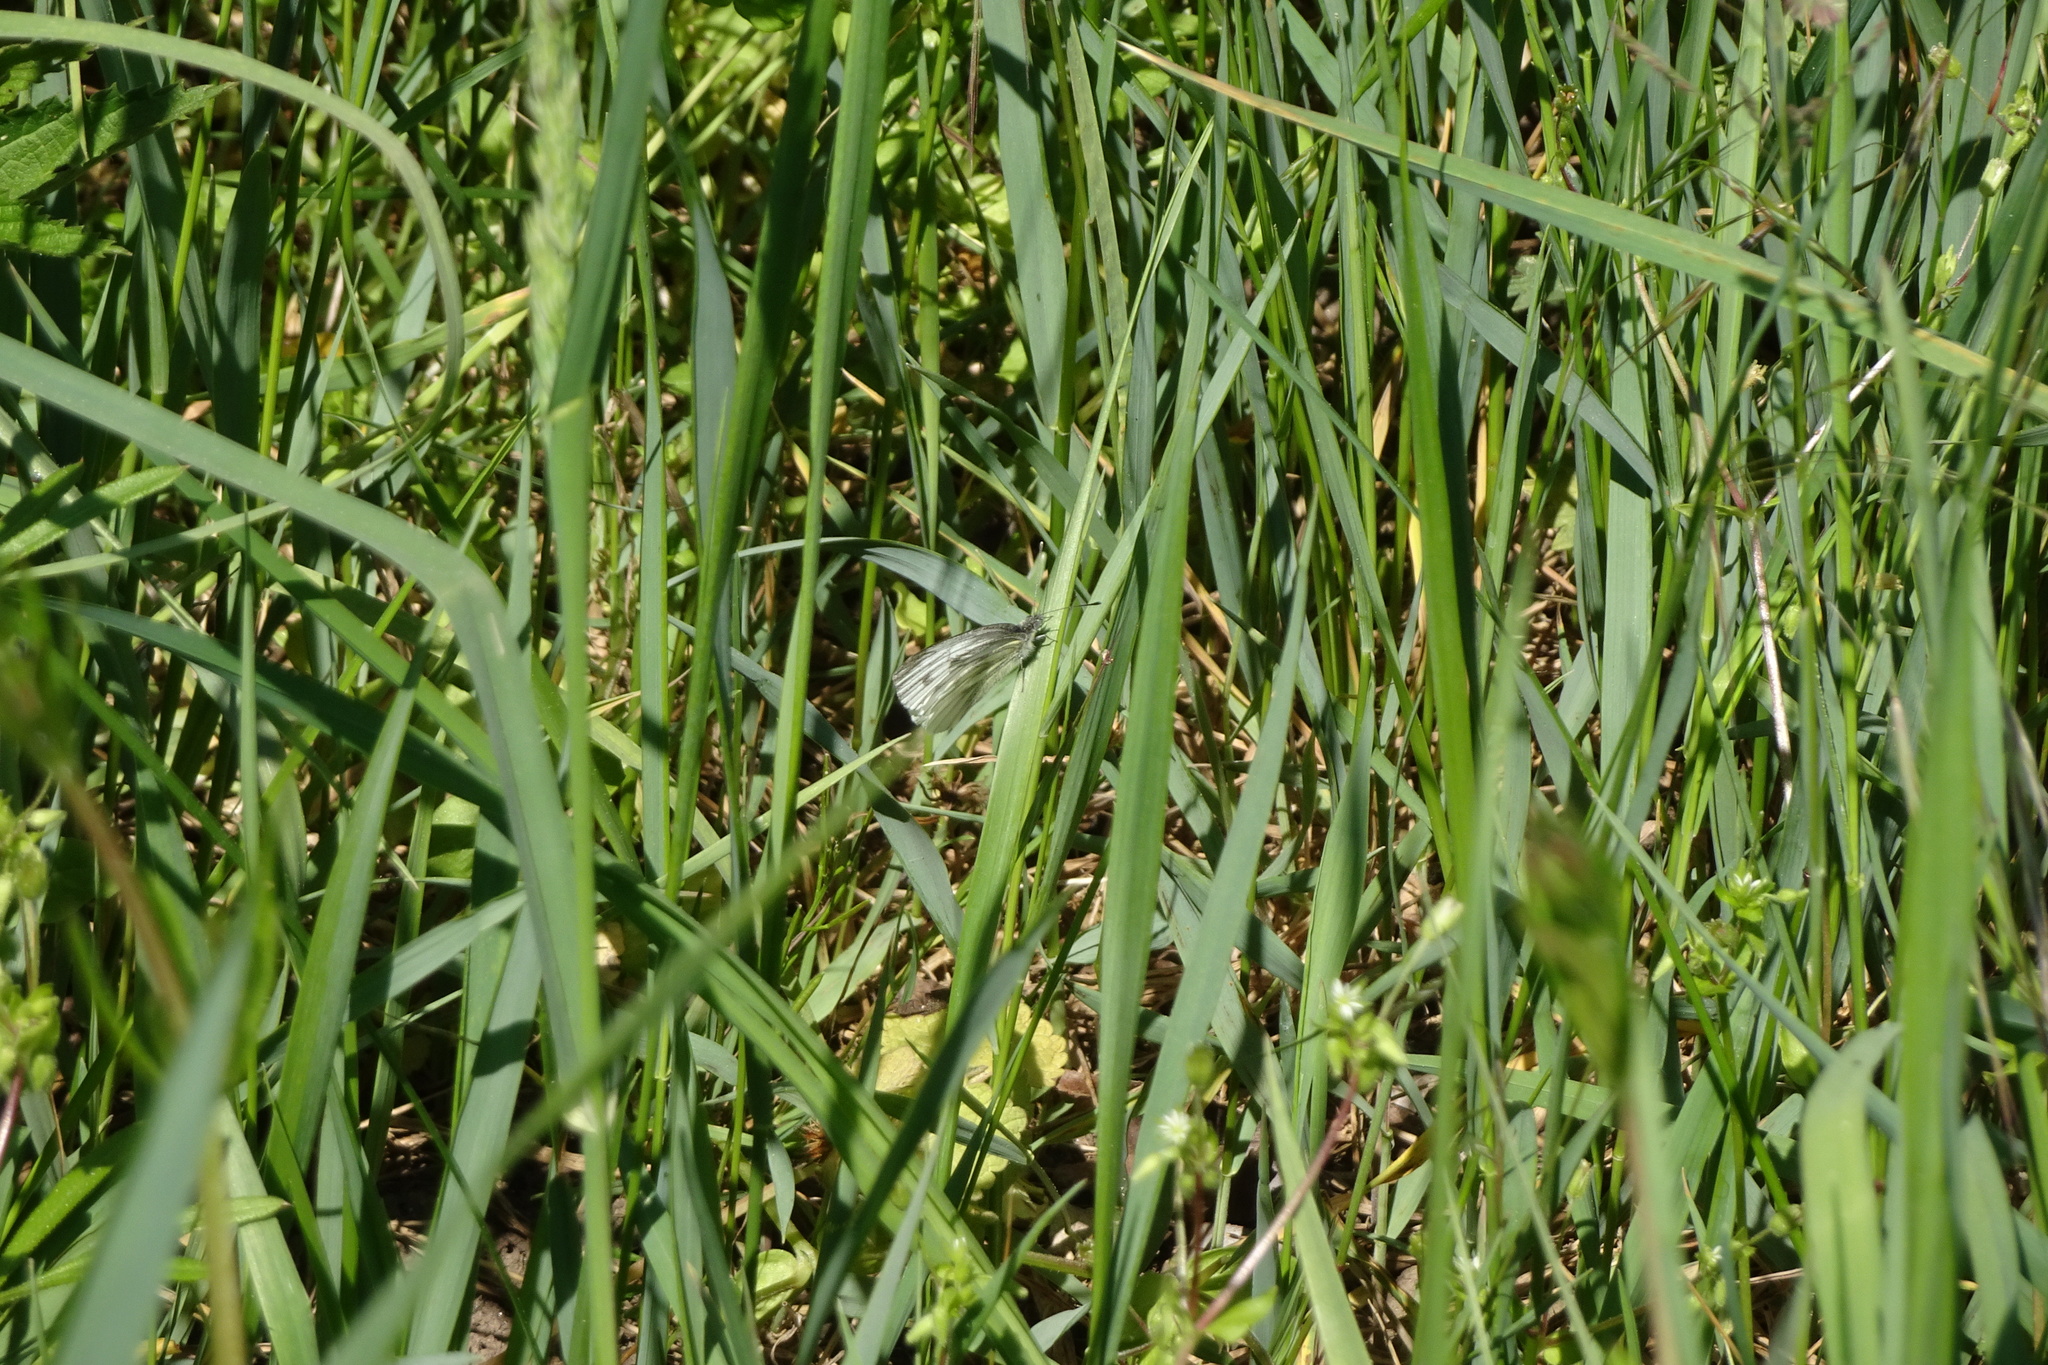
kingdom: Animalia
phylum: Arthropoda
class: Insecta
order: Lepidoptera
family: Pieridae
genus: Pieris
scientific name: Pieris napi
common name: Green-veined white
